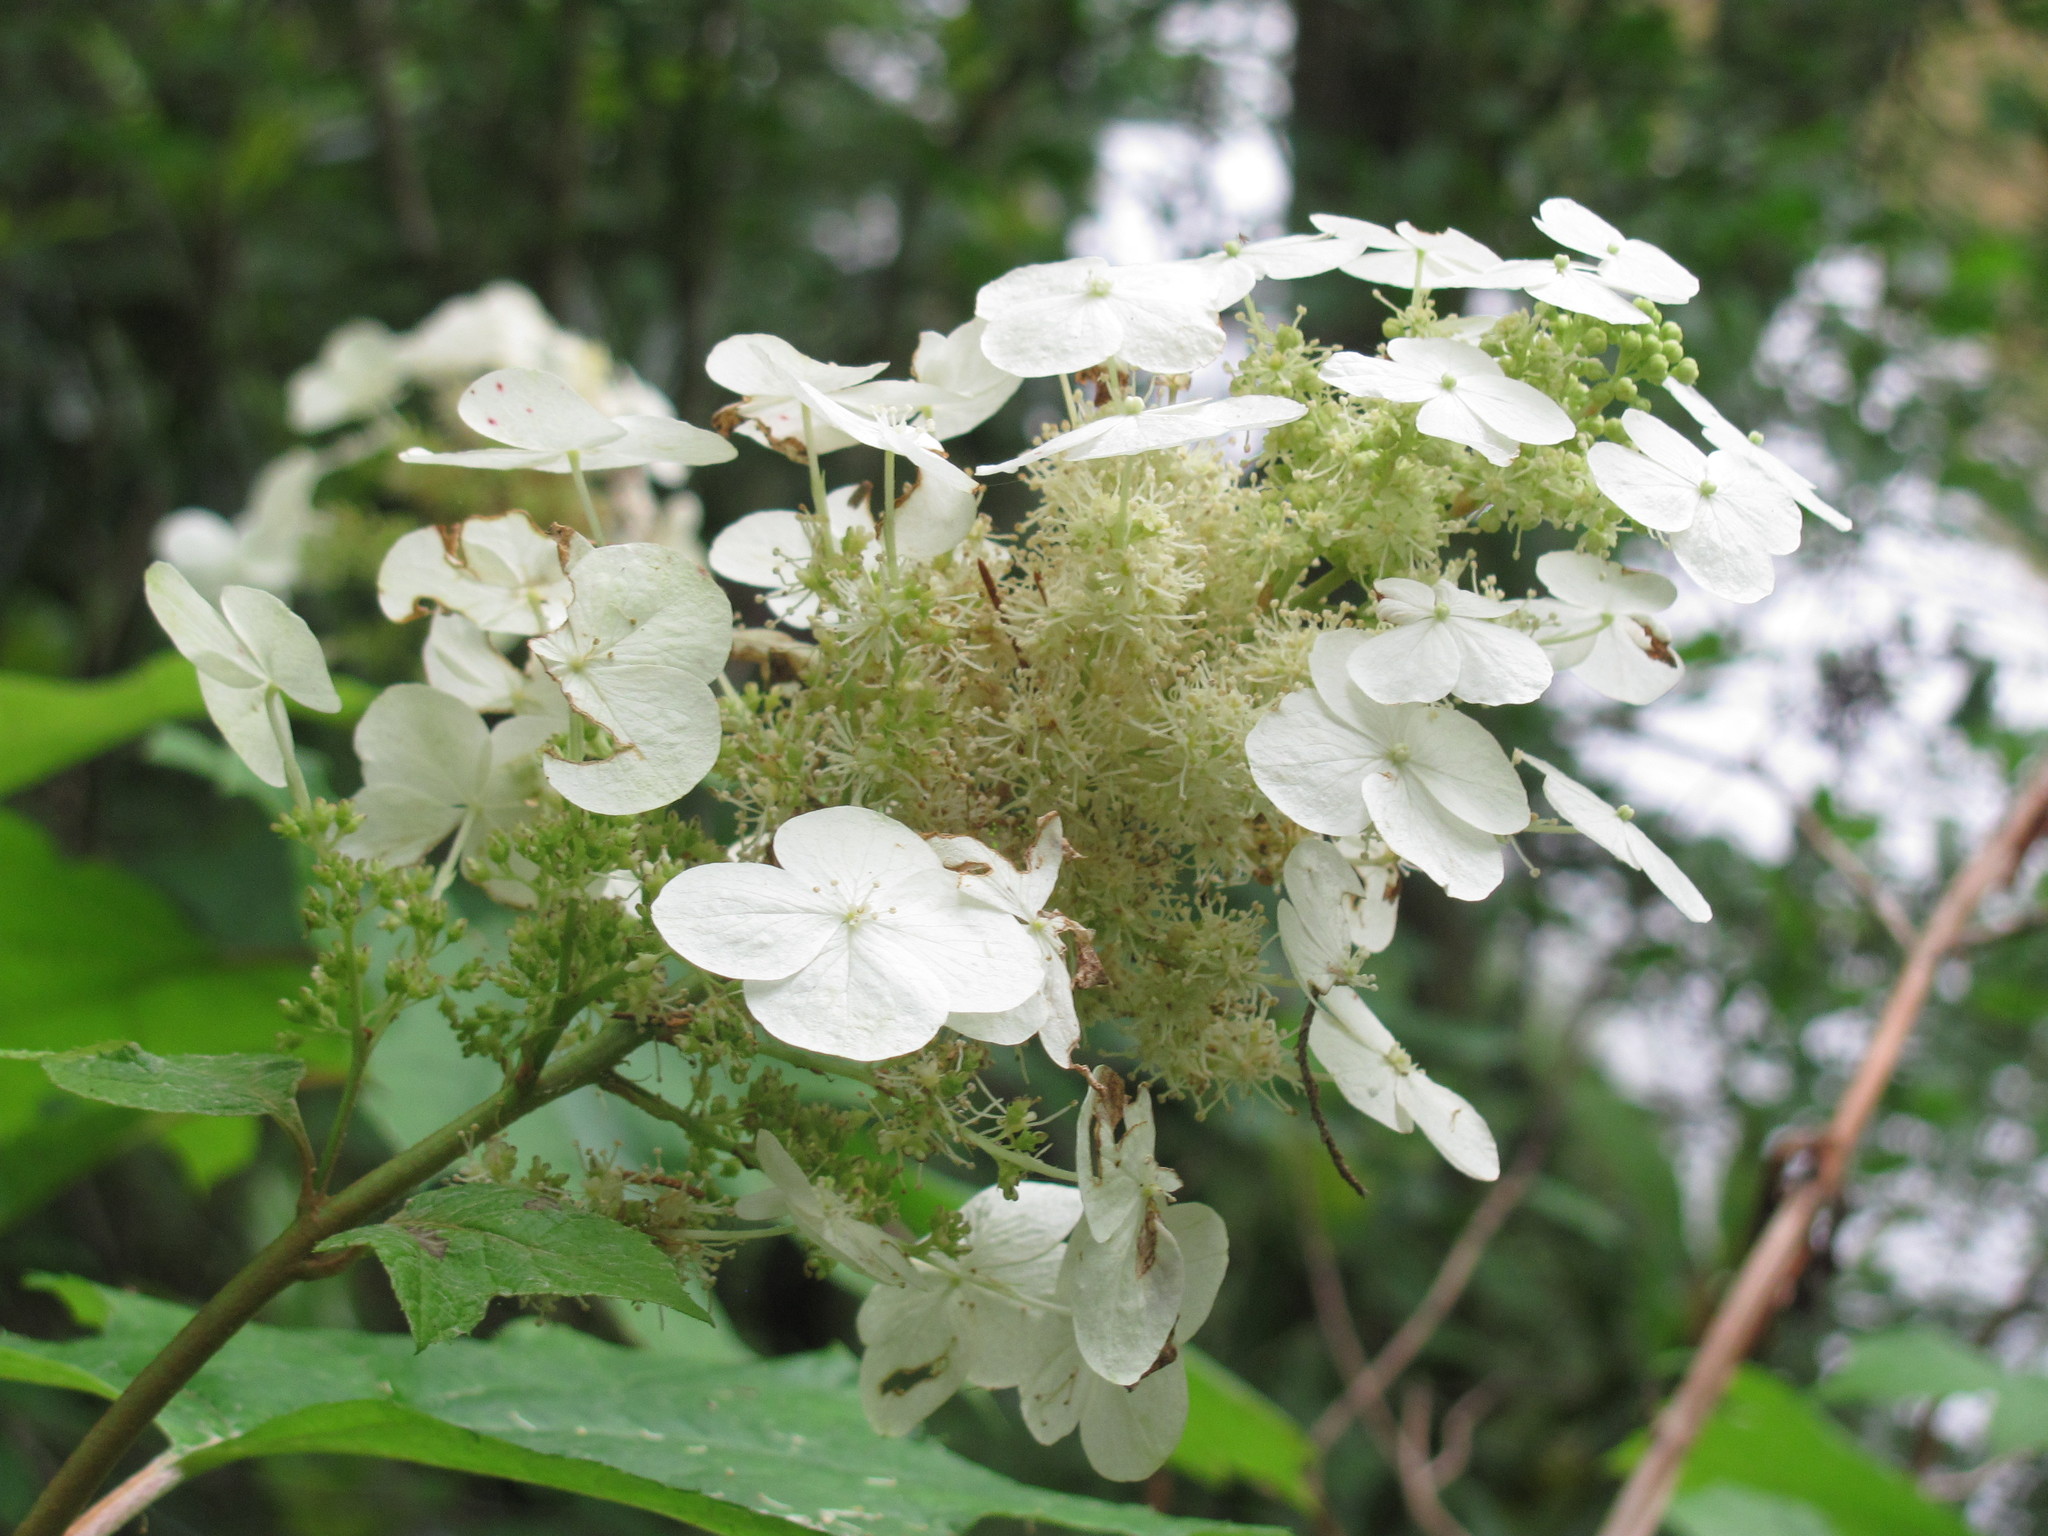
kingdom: Plantae
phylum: Tracheophyta
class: Magnoliopsida
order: Cornales
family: Hydrangeaceae
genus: Hydrangea
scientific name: Hydrangea quercifolia
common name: Oak-leaf hydrangea
